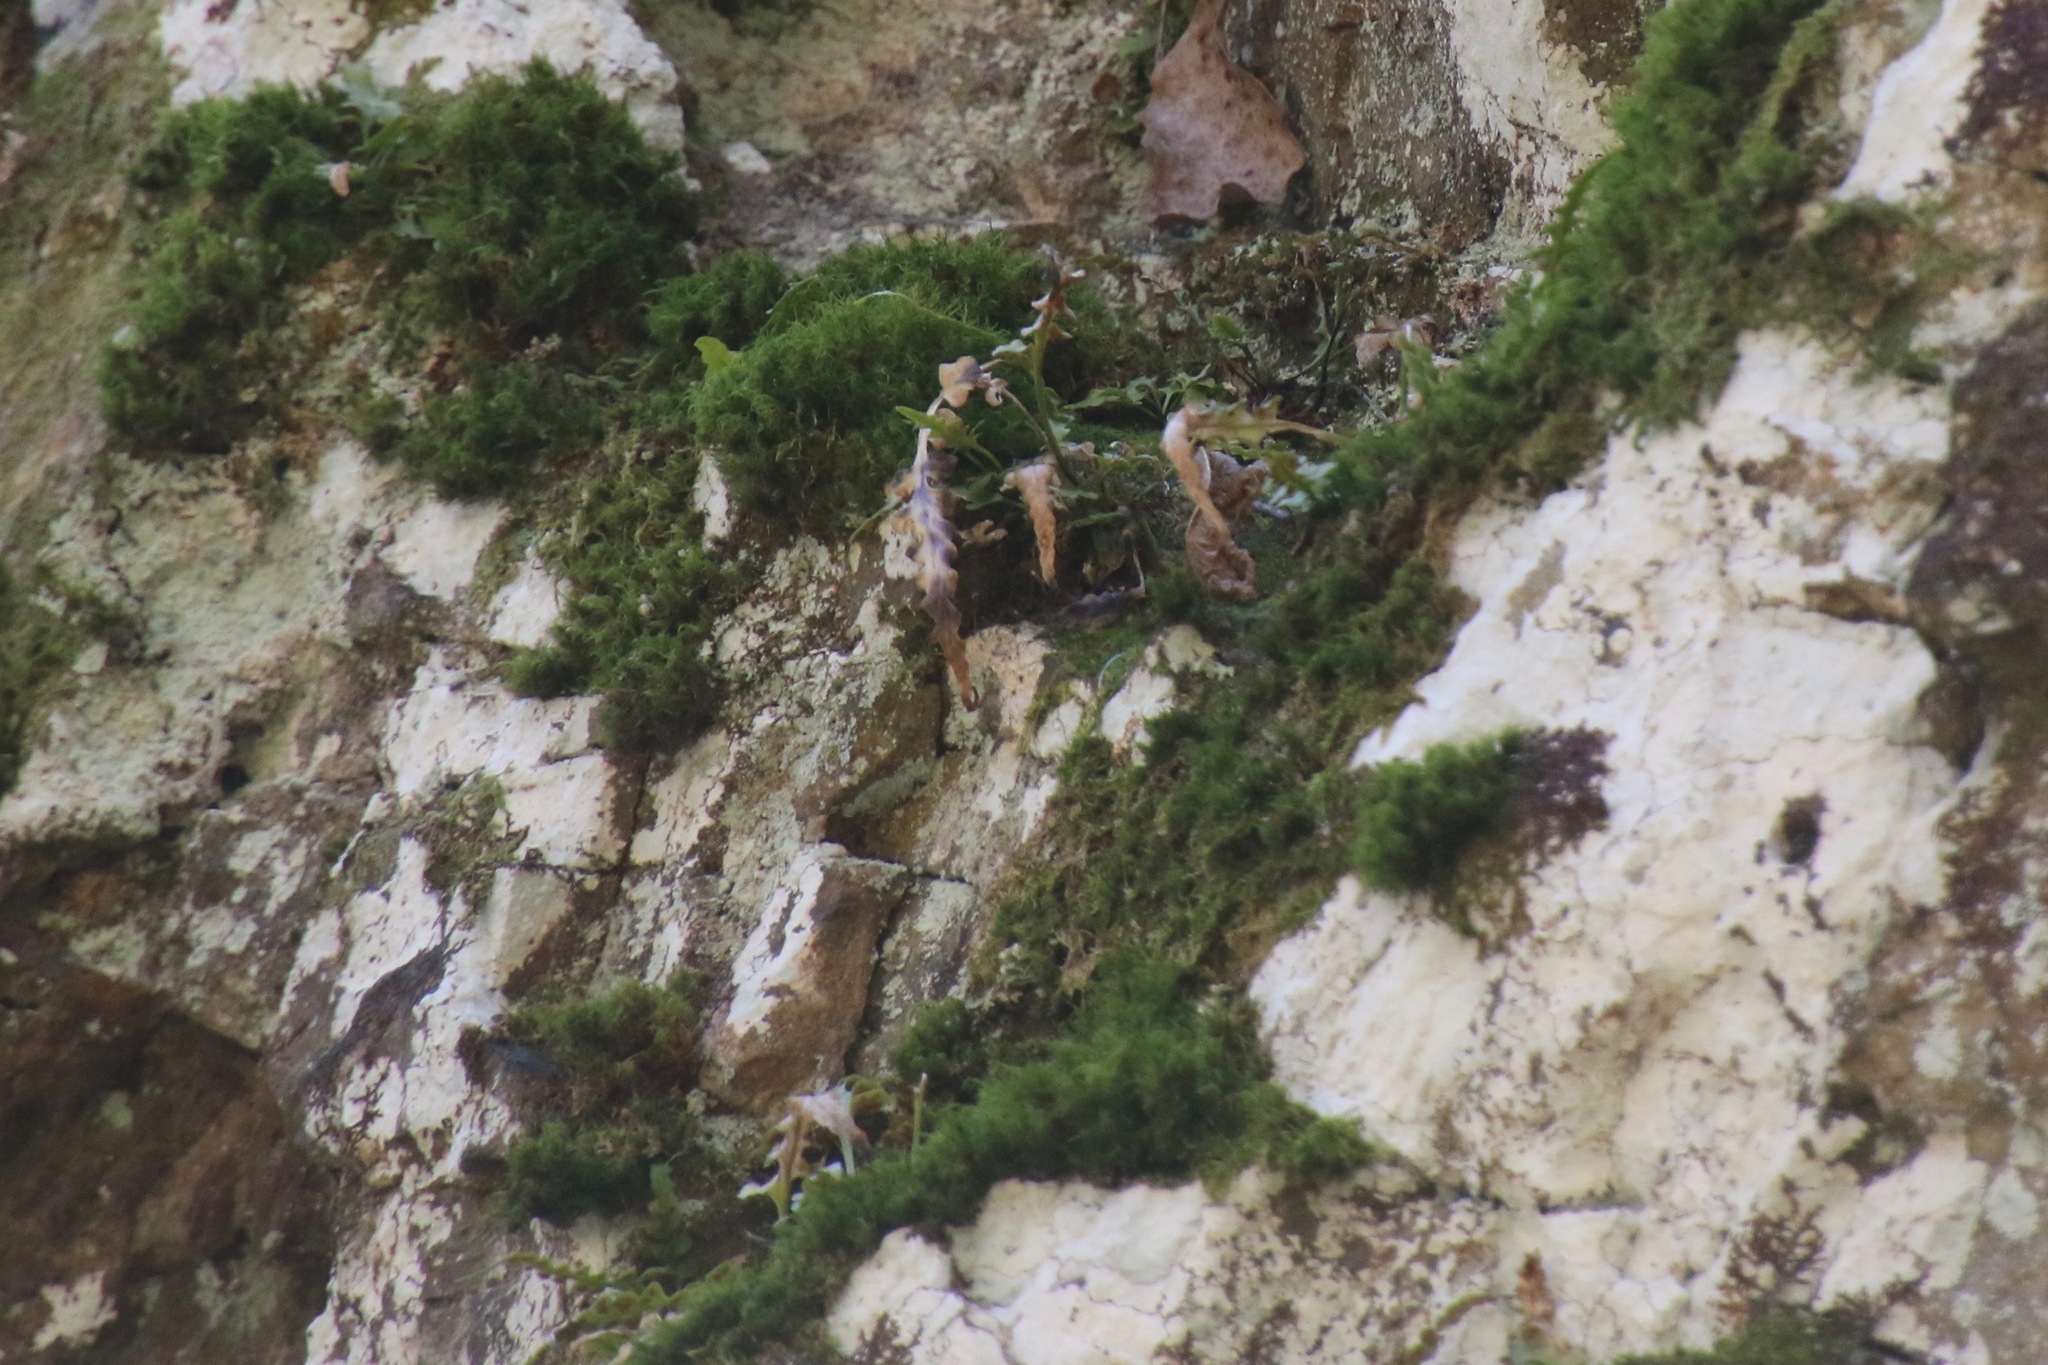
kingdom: Plantae
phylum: Tracheophyta
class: Polypodiopsida
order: Polypodiales
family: Aspleniaceae
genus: Asplenium
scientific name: Asplenium pinnatifidum
